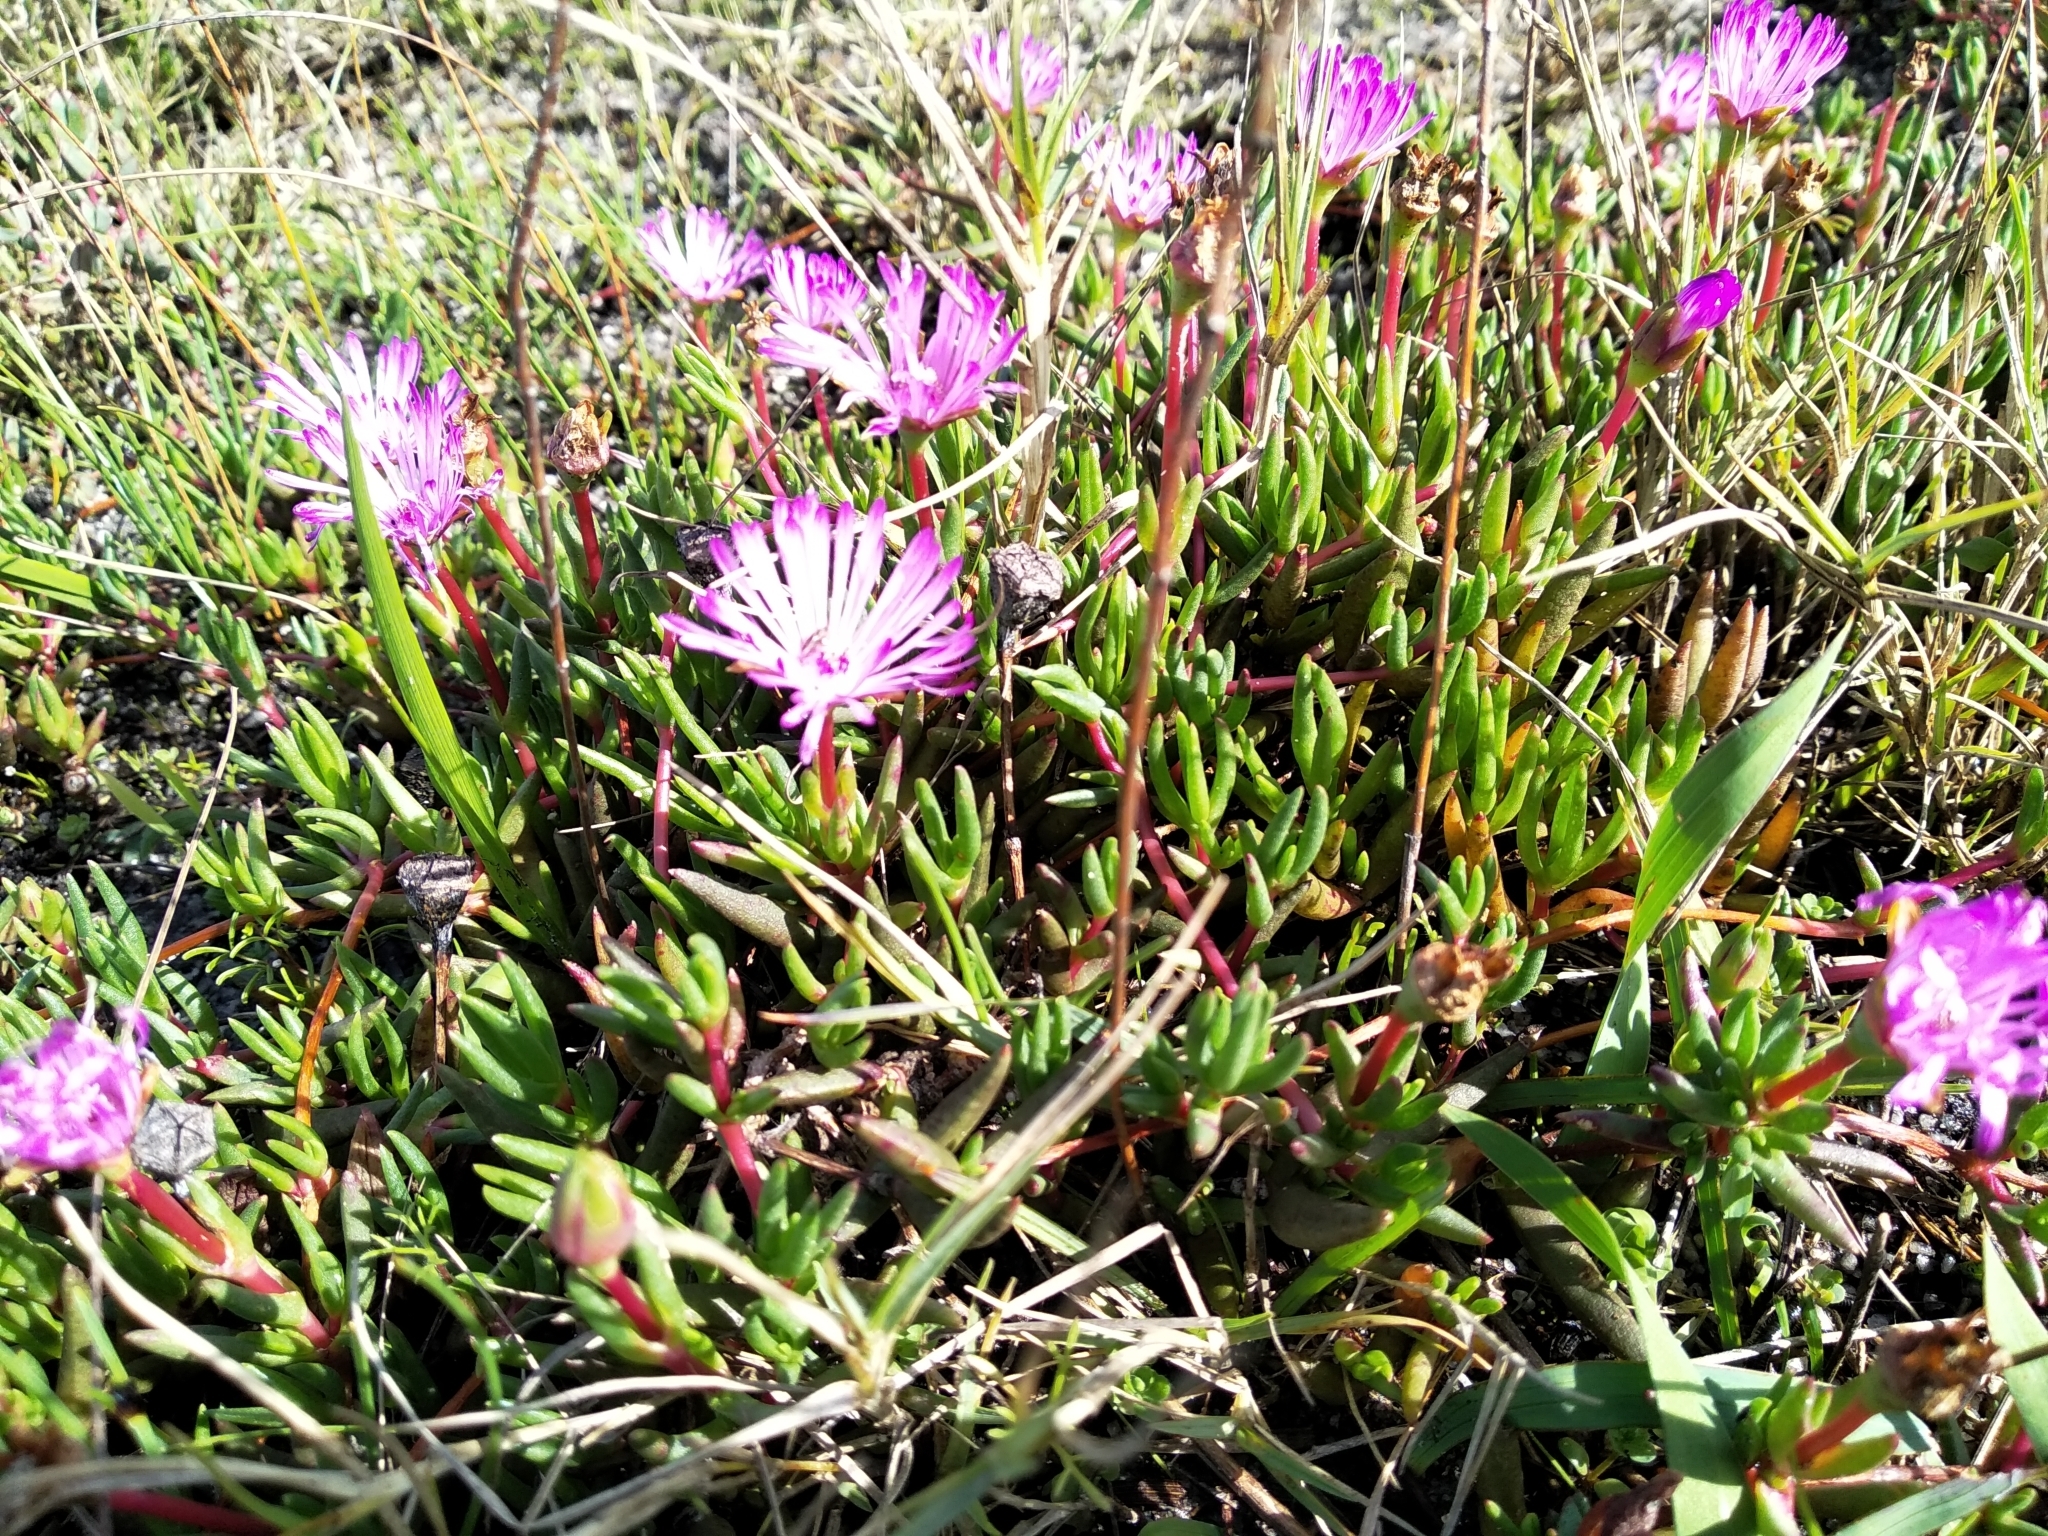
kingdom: Plantae
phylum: Tracheophyta
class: Magnoliopsida
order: Caryophyllales
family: Aizoaceae
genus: Lampranthus
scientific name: Lampranthus filicaulis
